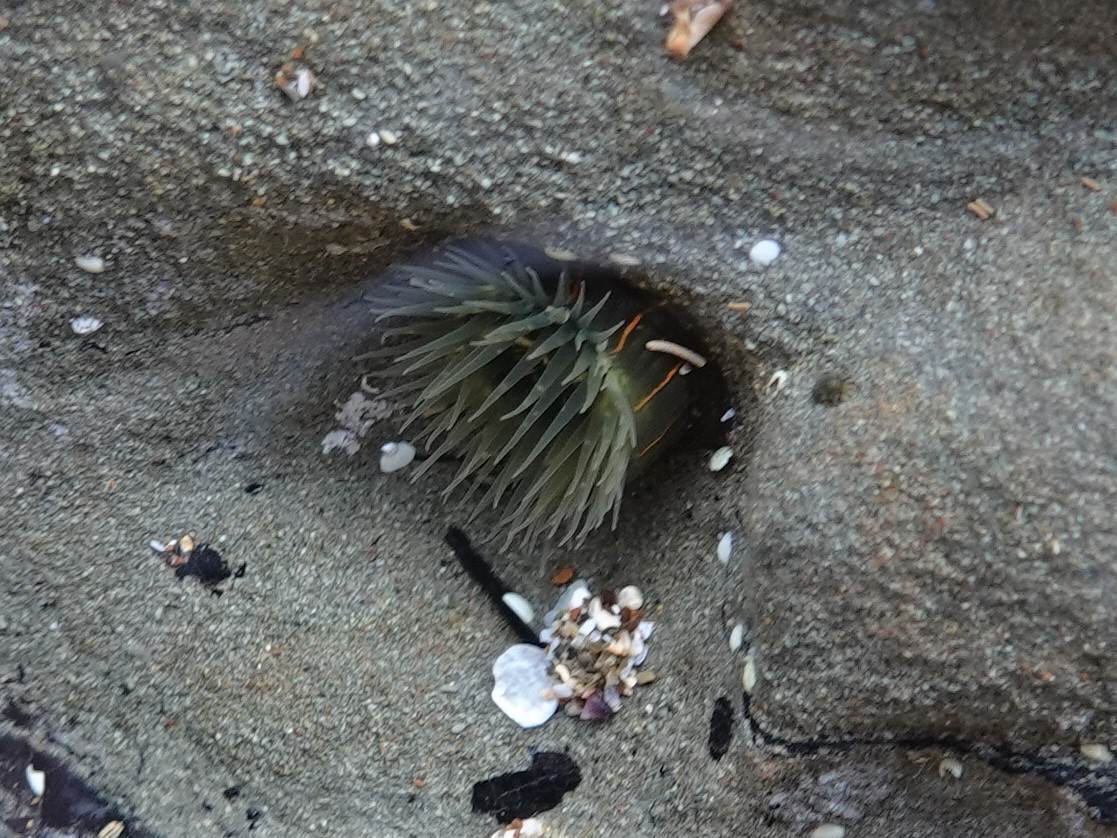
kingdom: Animalia
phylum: Cnidaria
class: Anthozoa
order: Actiniaria
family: Diadumenidae
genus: Diadumene
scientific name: Diadumene lineata
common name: Orange-striped anemone
